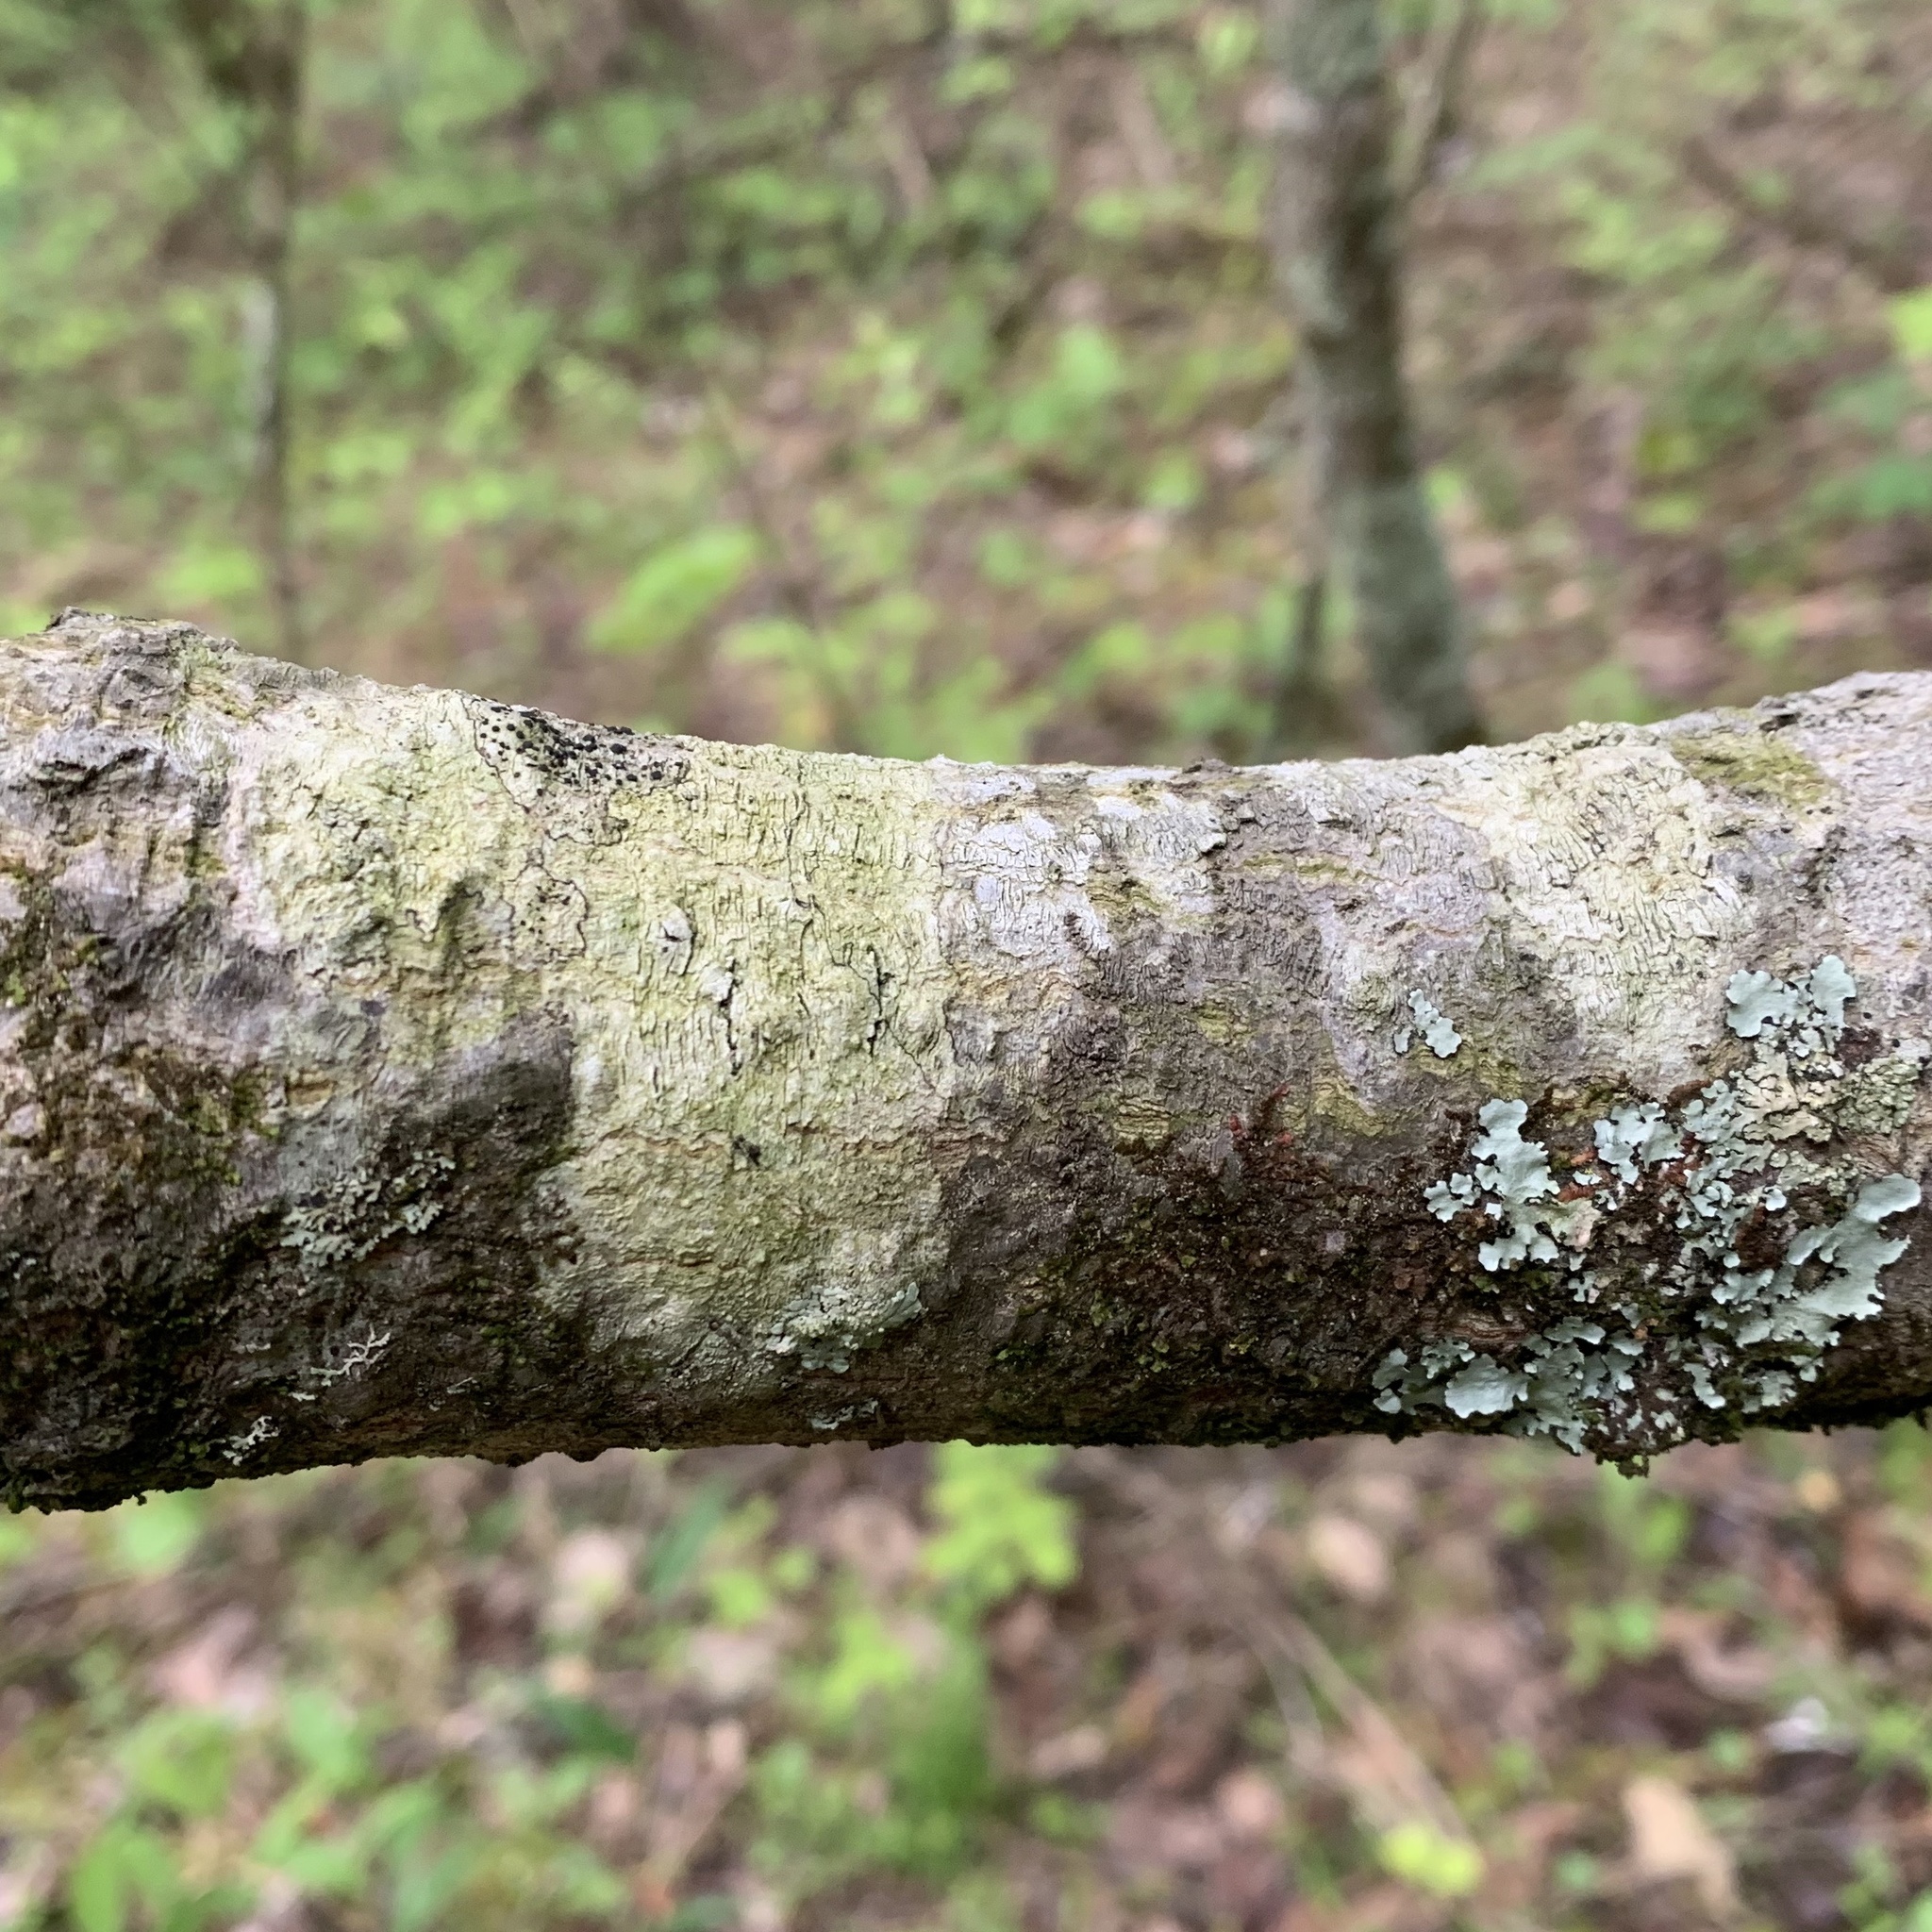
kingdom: Fungi
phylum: Ascomycota
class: Lecanoromycetes
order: Pertusariales
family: Pertusariaceae
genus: Pertusaria
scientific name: Pertusaria texana
